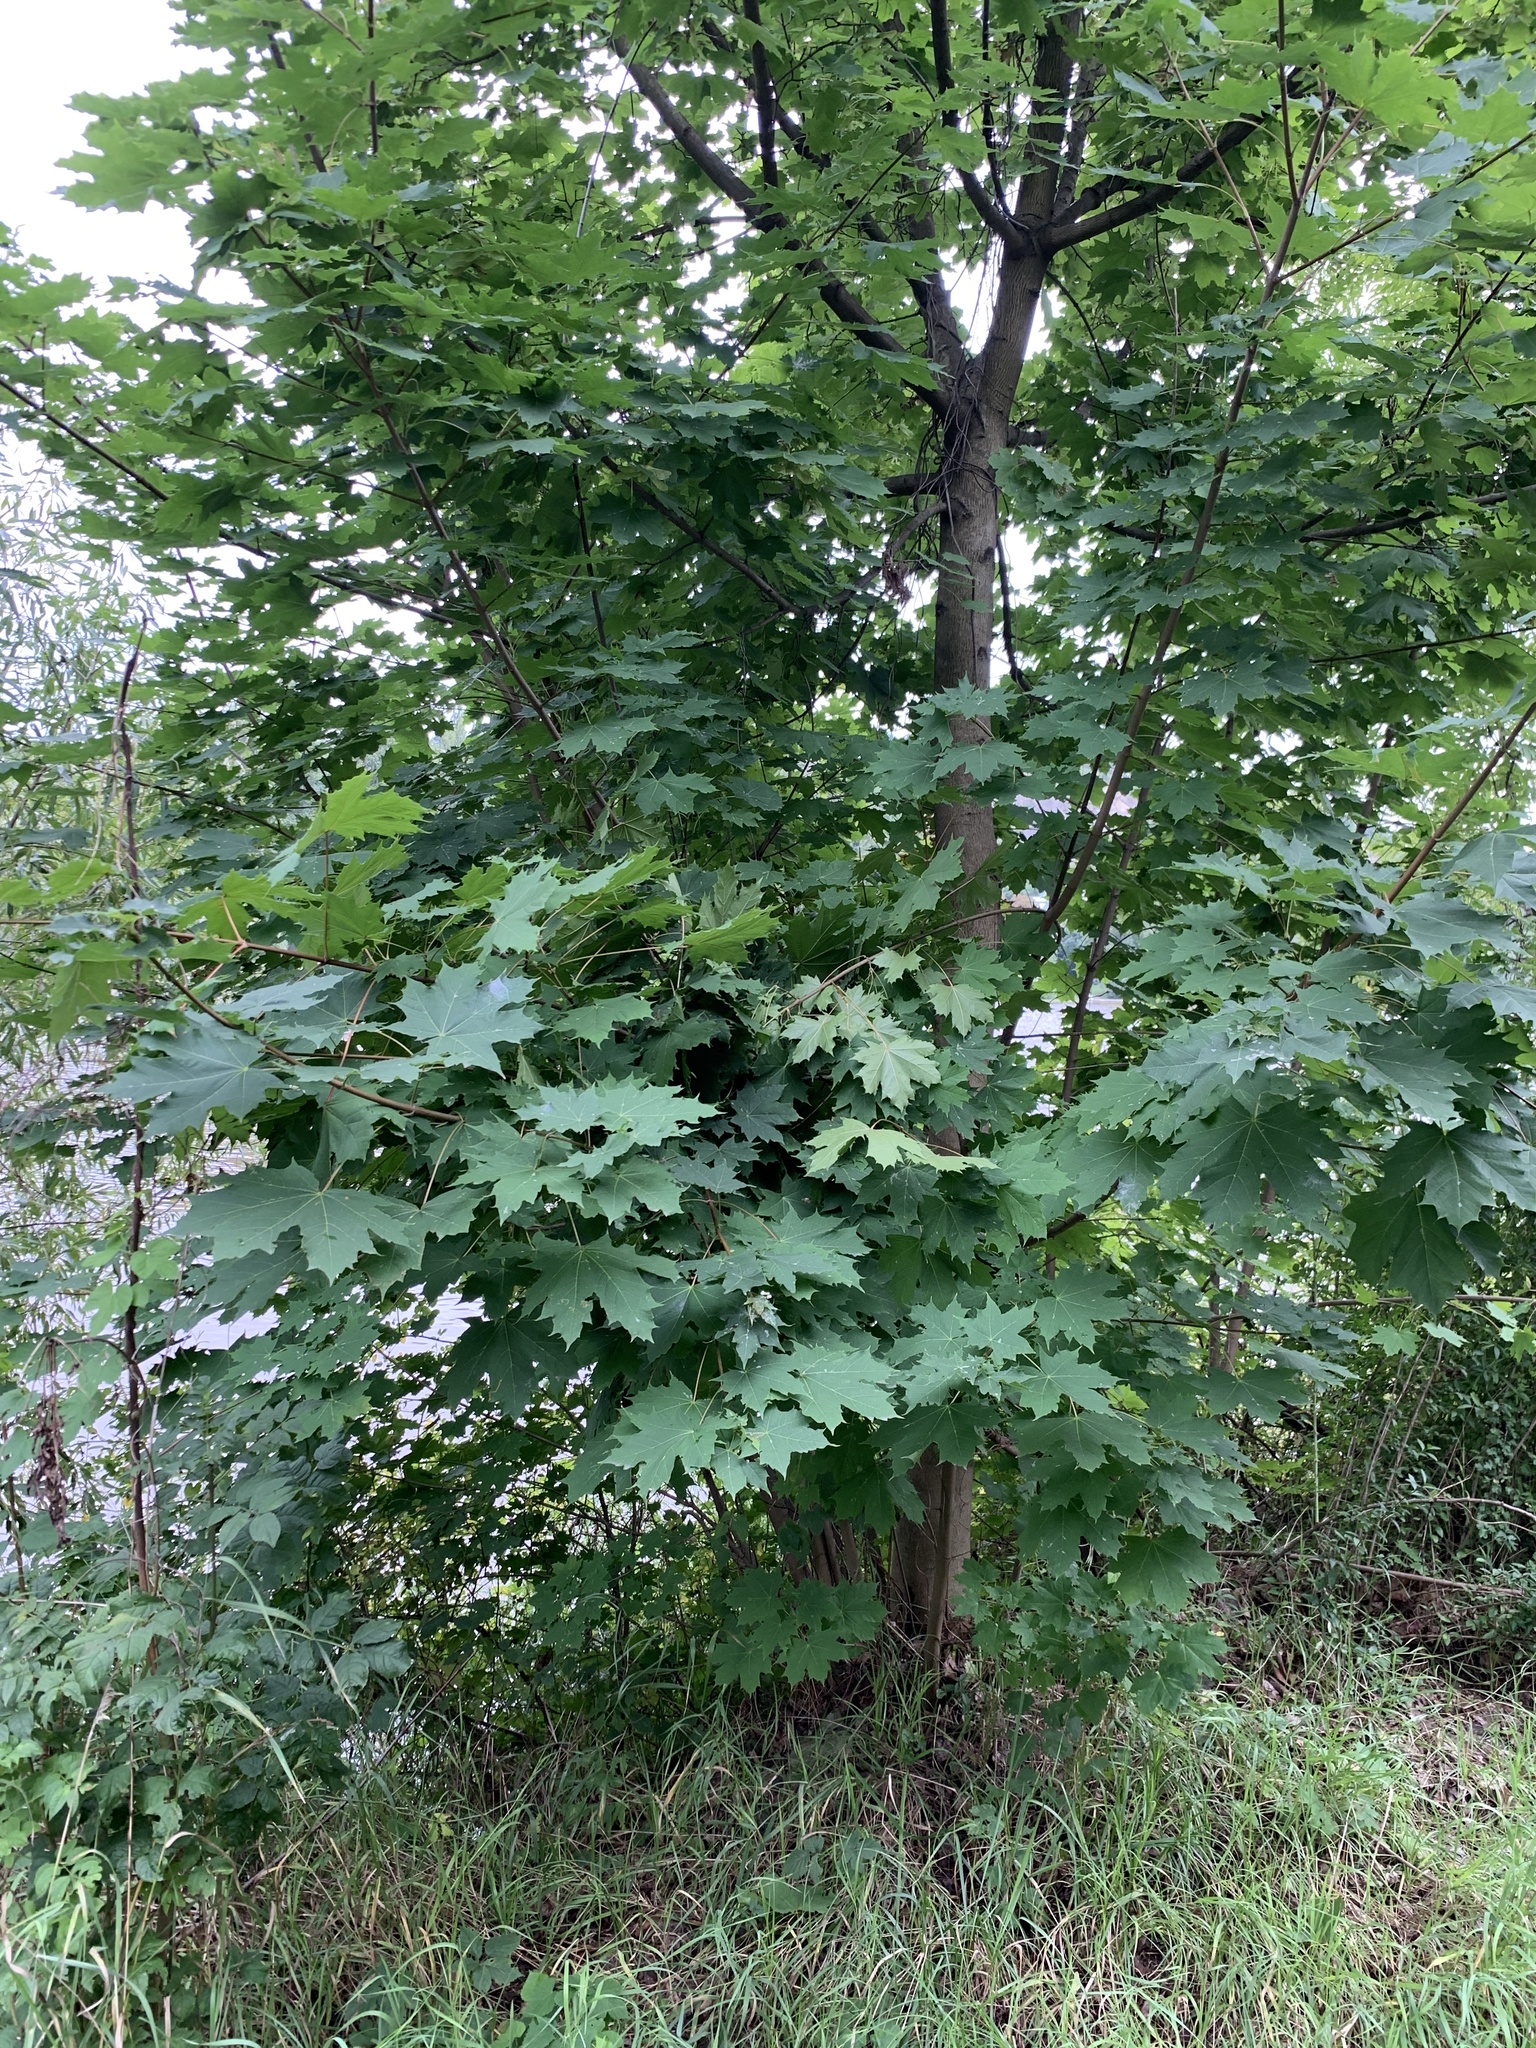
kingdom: Plantae
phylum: Tracheophyta
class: Magnoliopsida
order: Sapindales
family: Sapindaceae
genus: Acer
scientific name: Acer platanoides
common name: Norway maple
